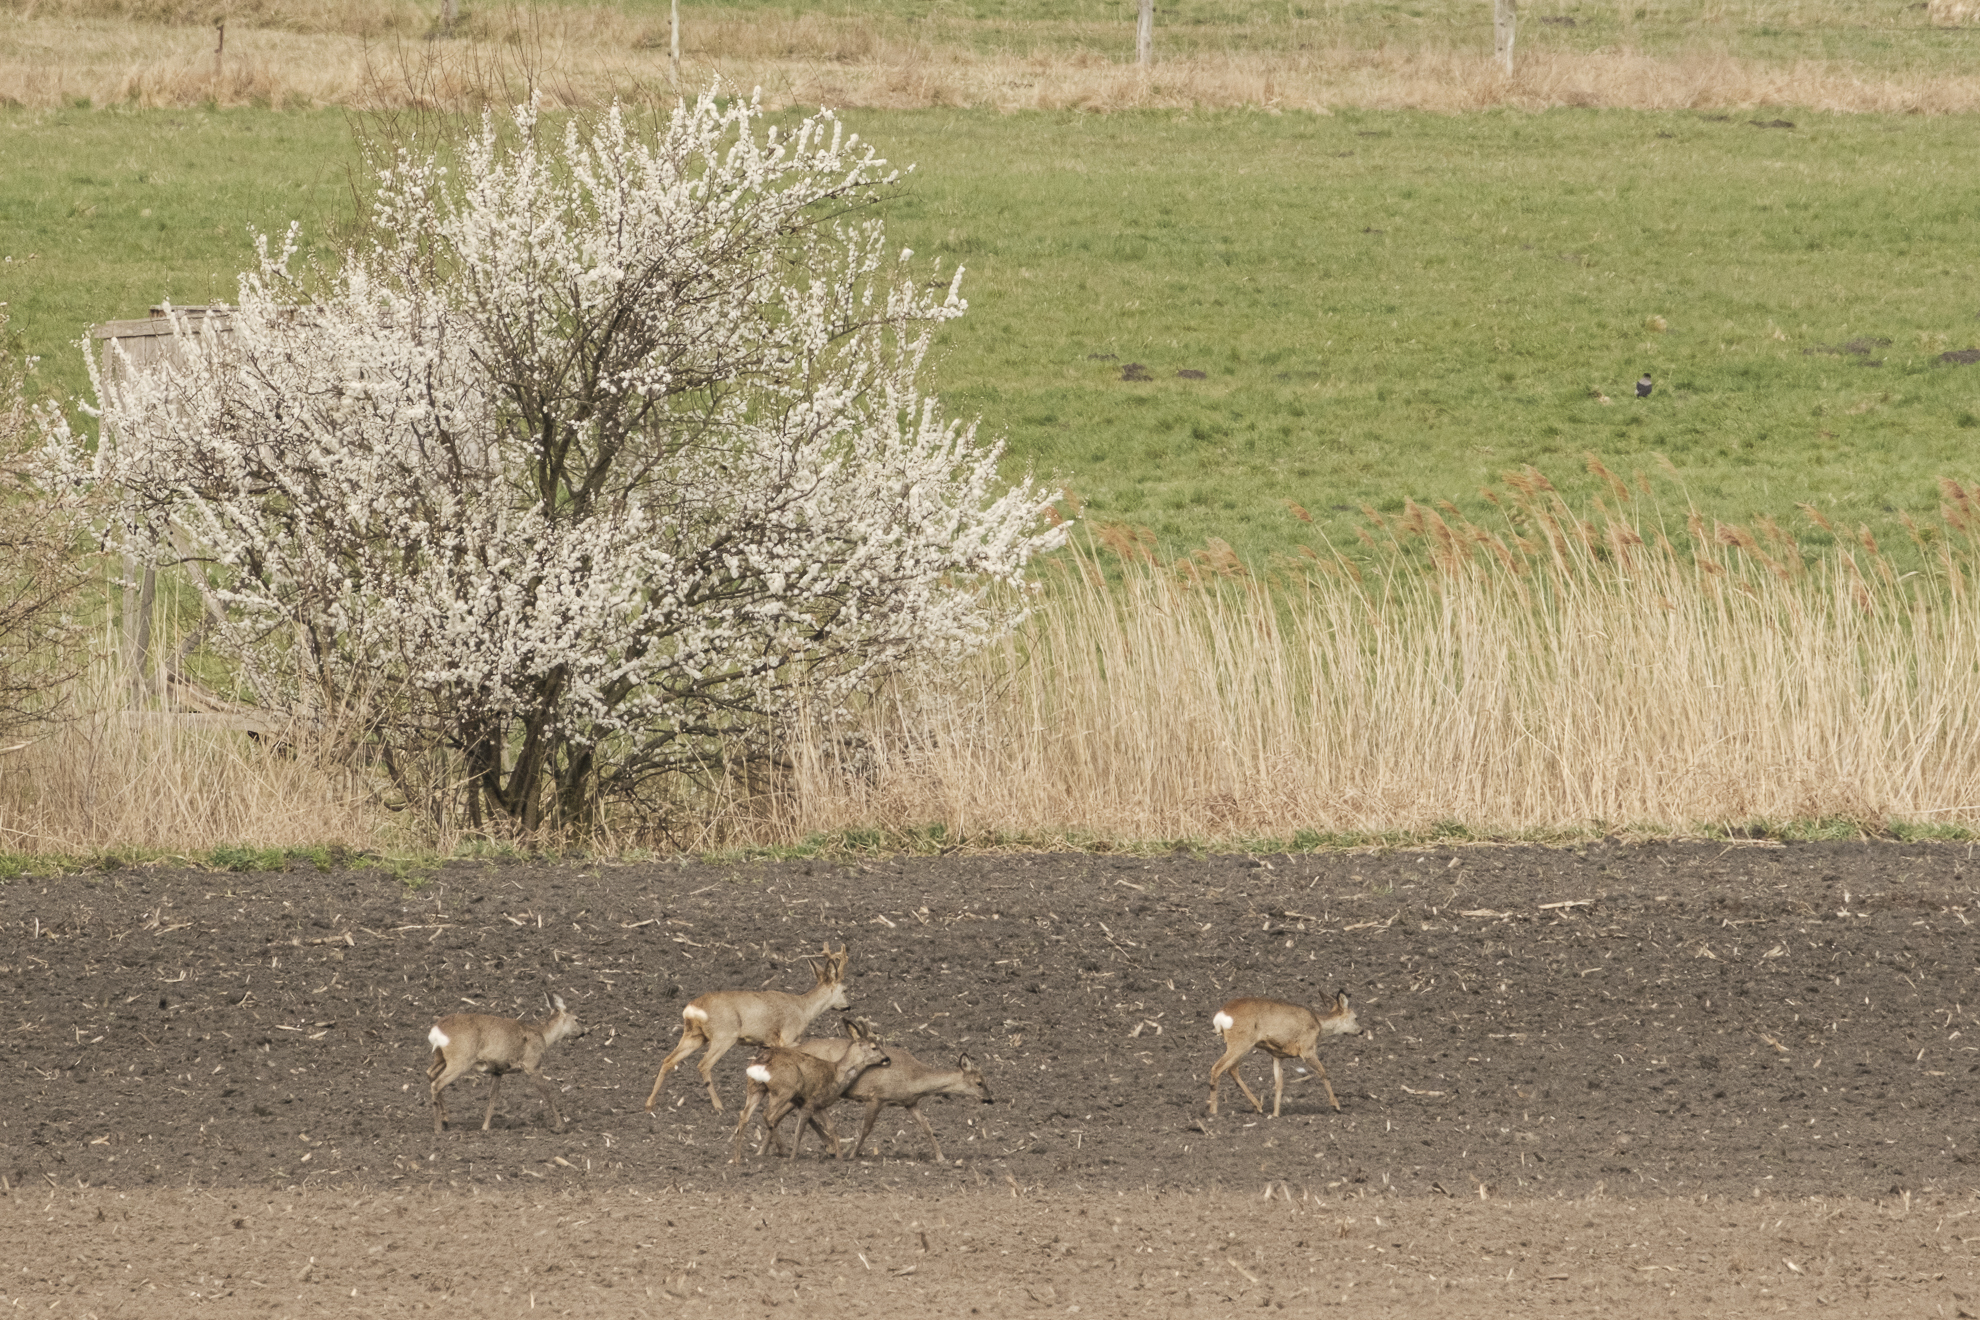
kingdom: Animalia
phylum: Chordata
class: Mammalia
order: Artiodactyla
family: Cervidae
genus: Capreolus
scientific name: Capreolus capreolus
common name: Western roe deer
